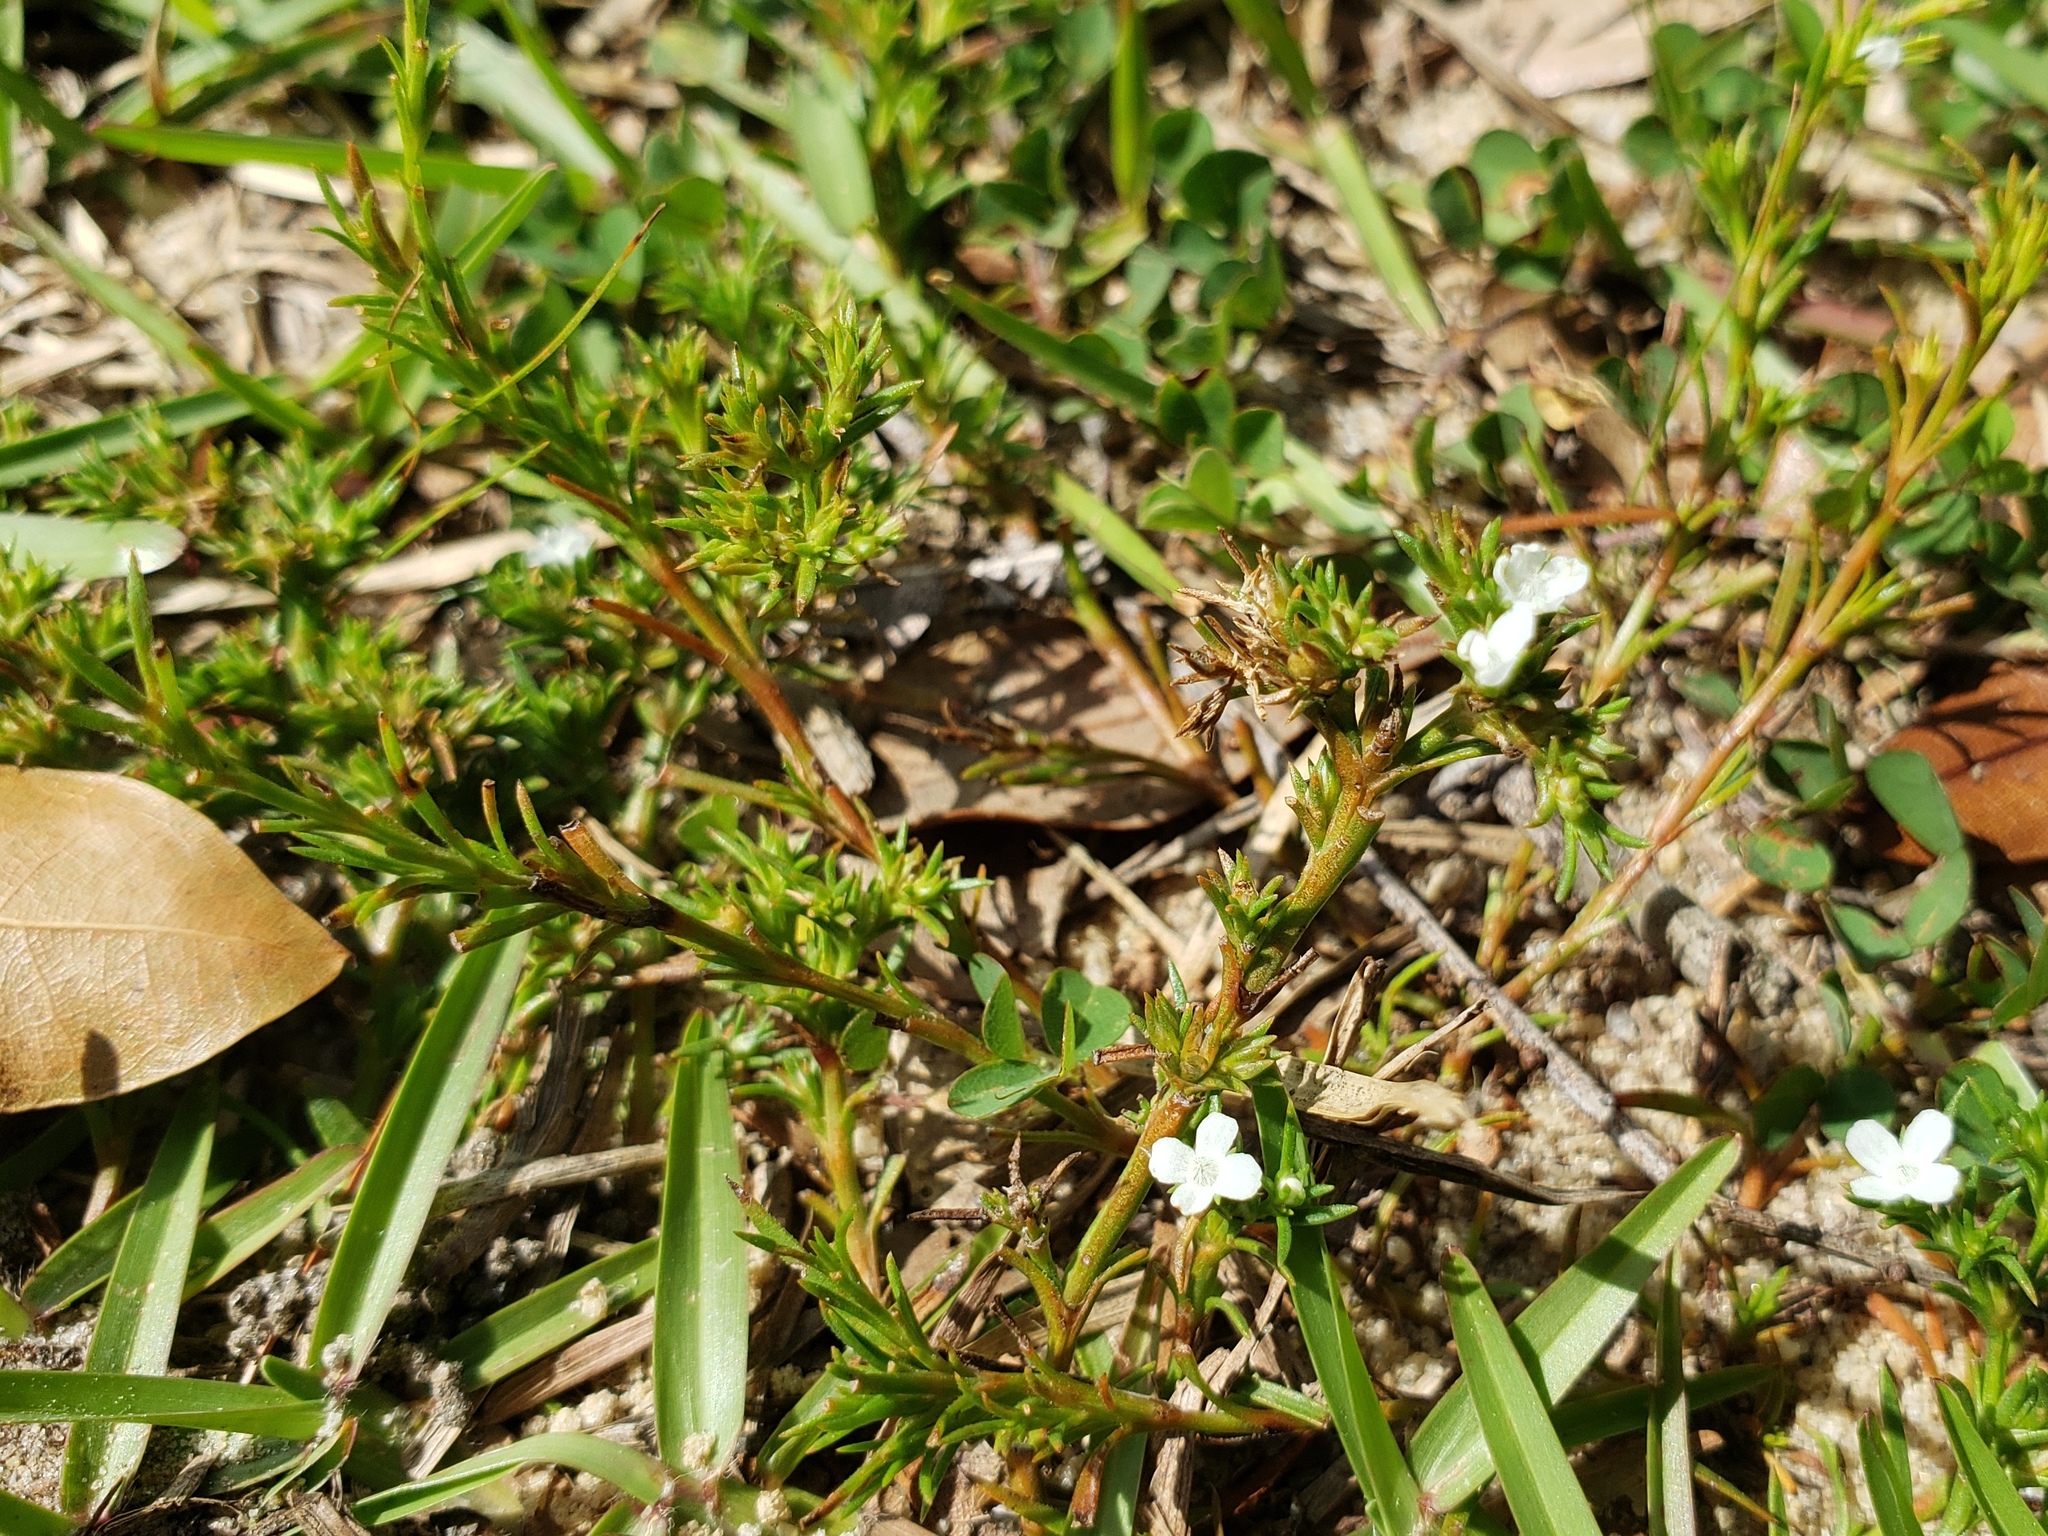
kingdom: Plantae
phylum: Tracheophyta
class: Magnoliopsida
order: Lamiales
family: Tetrachondraceae
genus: Polypremum
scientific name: Polypremum procumbens
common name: Juniper-leaf
